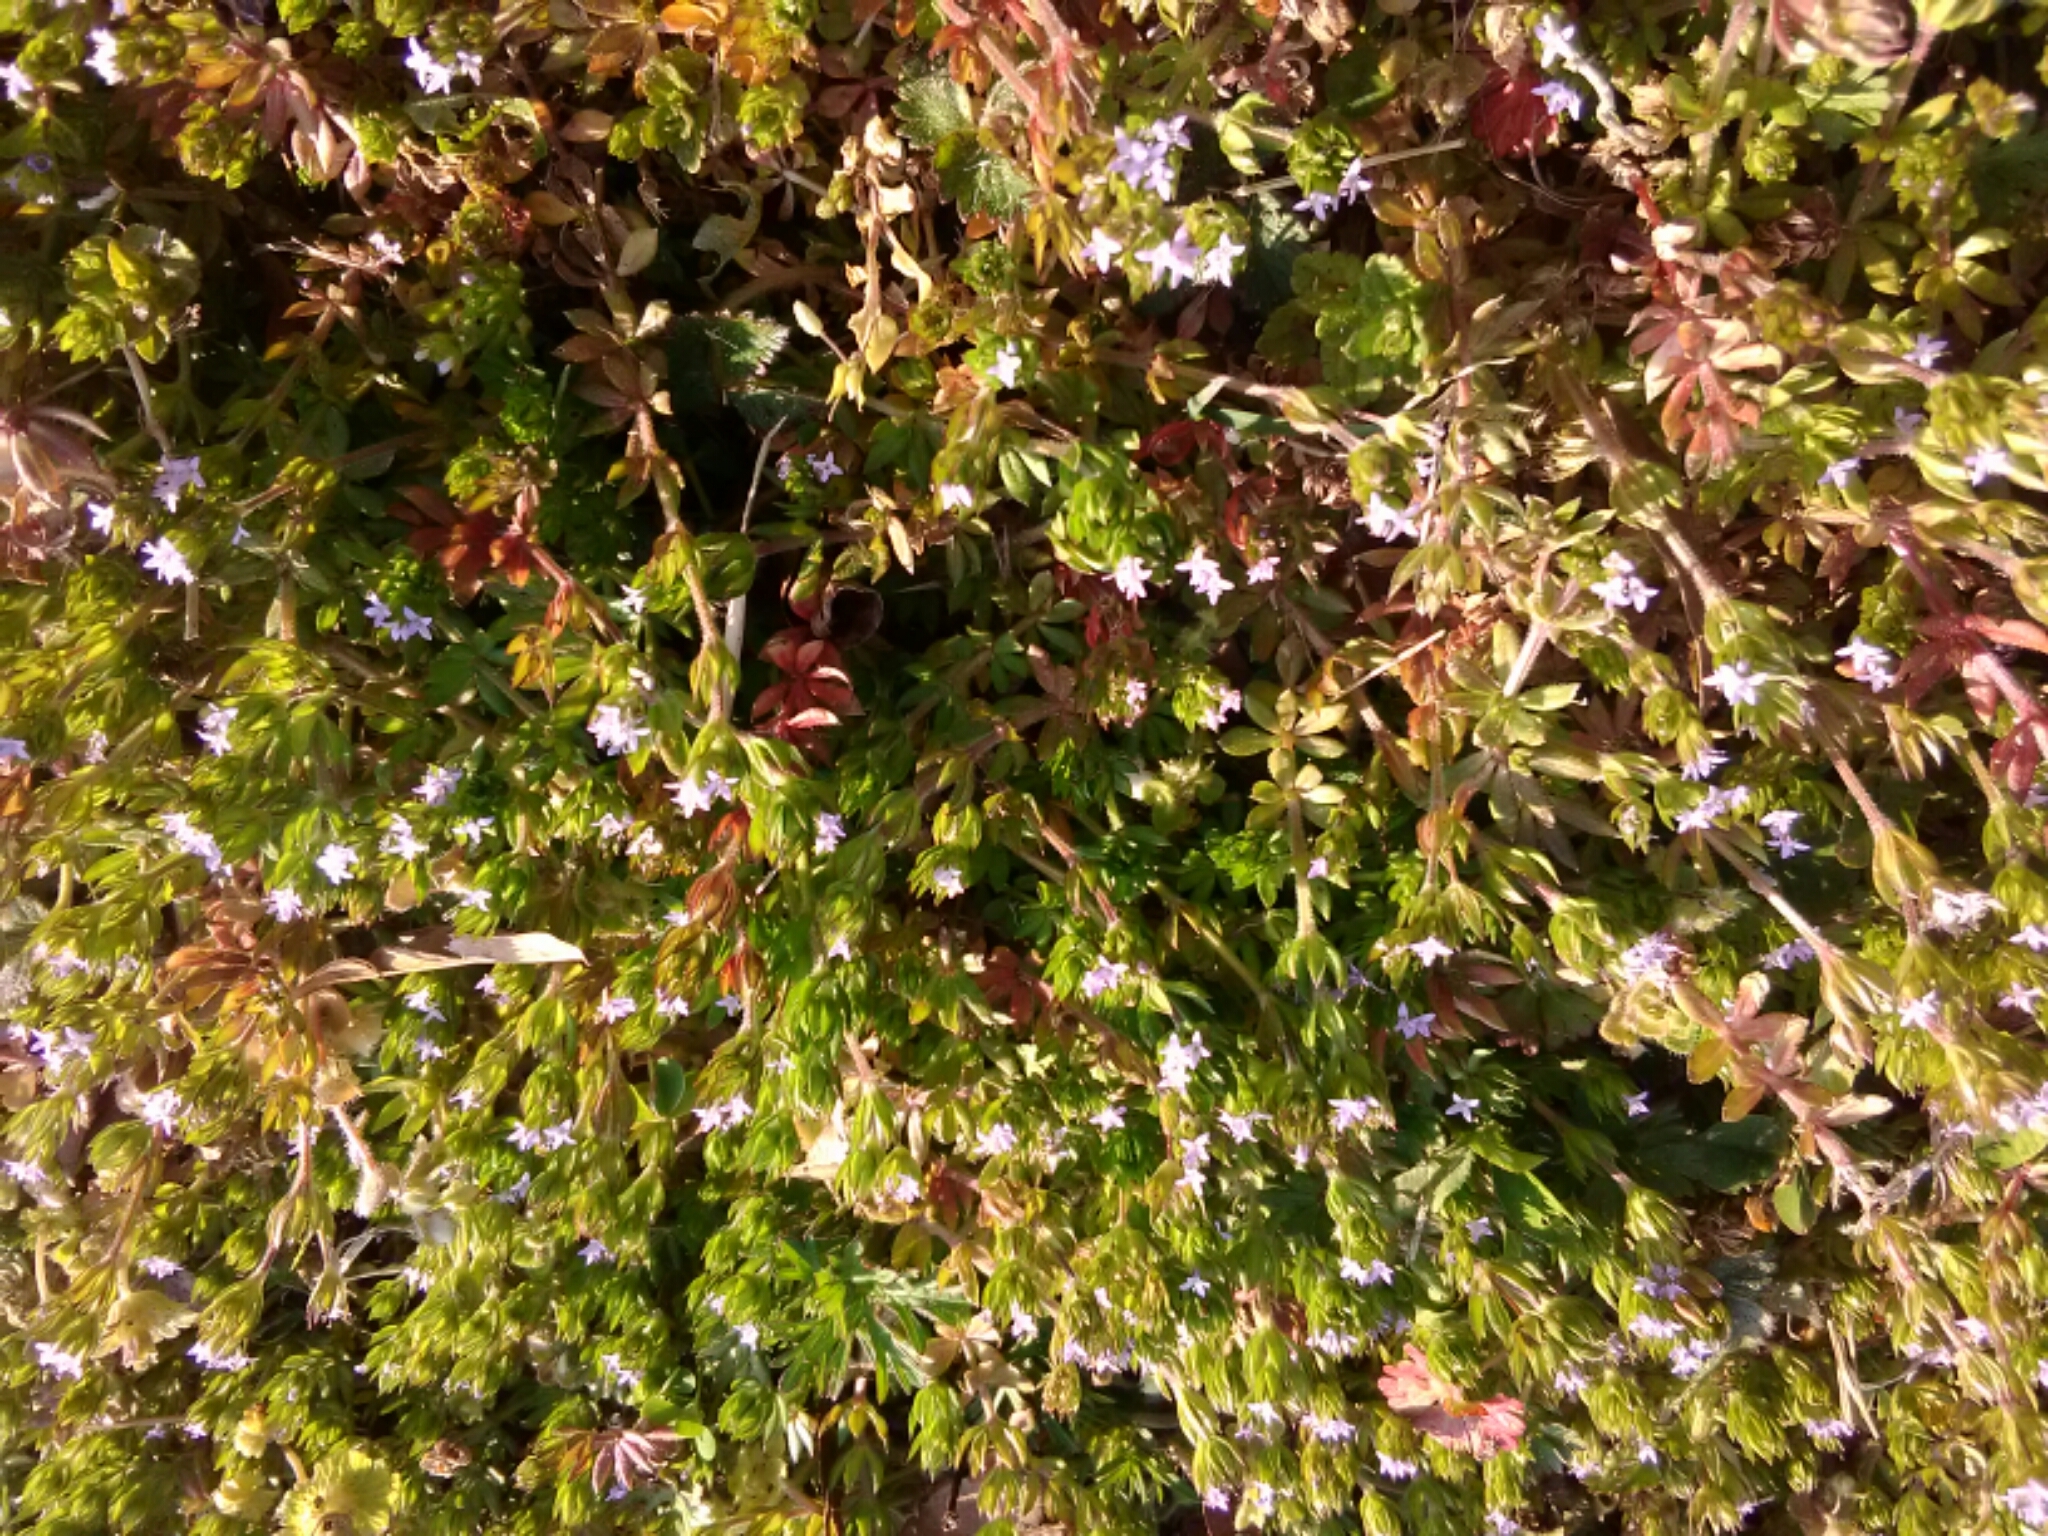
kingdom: Plantae
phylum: Tracheophyta
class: Magnoliopsida
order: Gentianales
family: Rubiaceae
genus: Sherardia
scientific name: Sherardia arvensis
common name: Field madder
